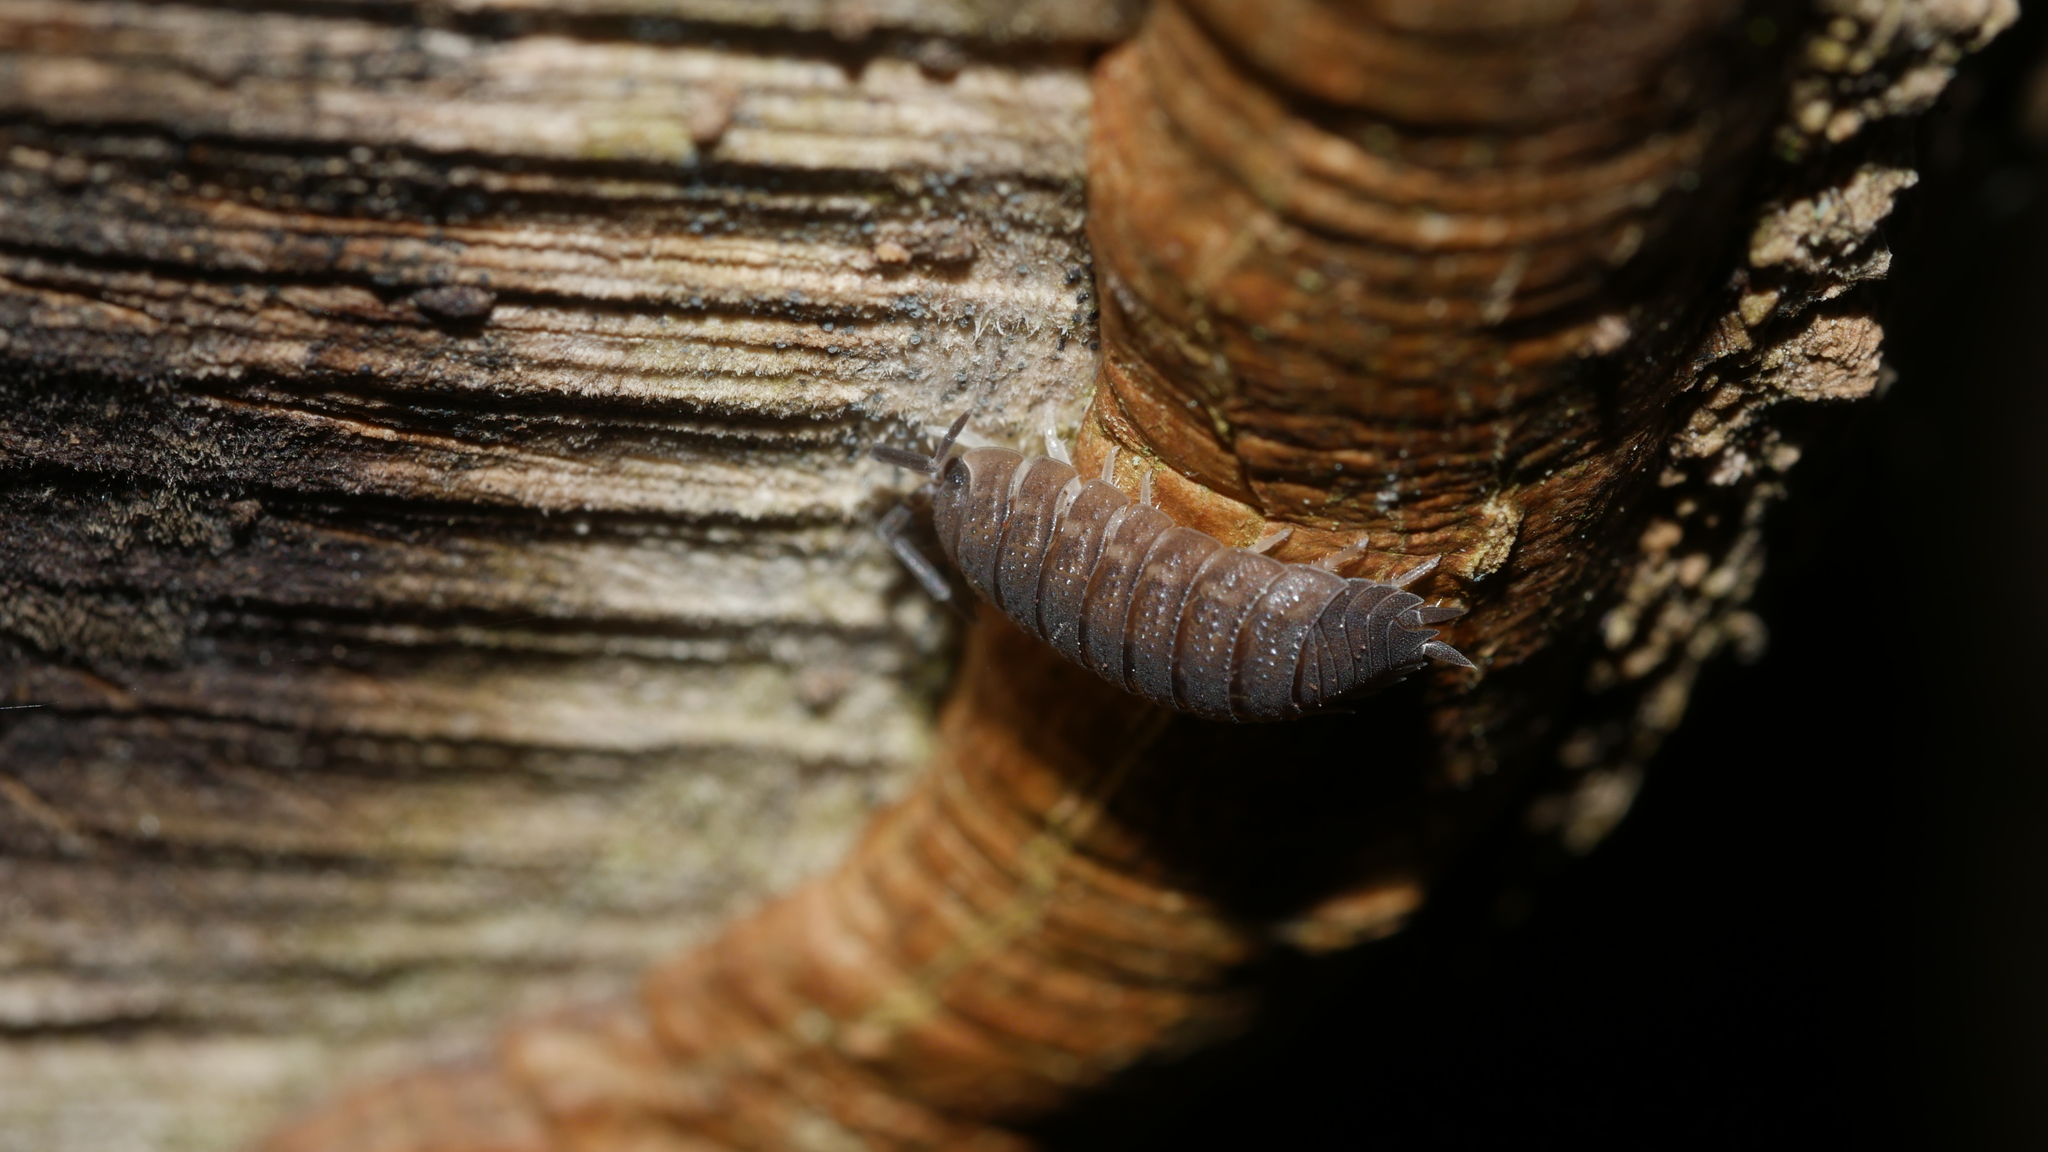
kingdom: Animalia
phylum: Arthropoda
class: Malacostraca
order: Isopoda
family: Porcellionidae
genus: Porcellio
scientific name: Porcellio scaber
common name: Common rough woodlouse
